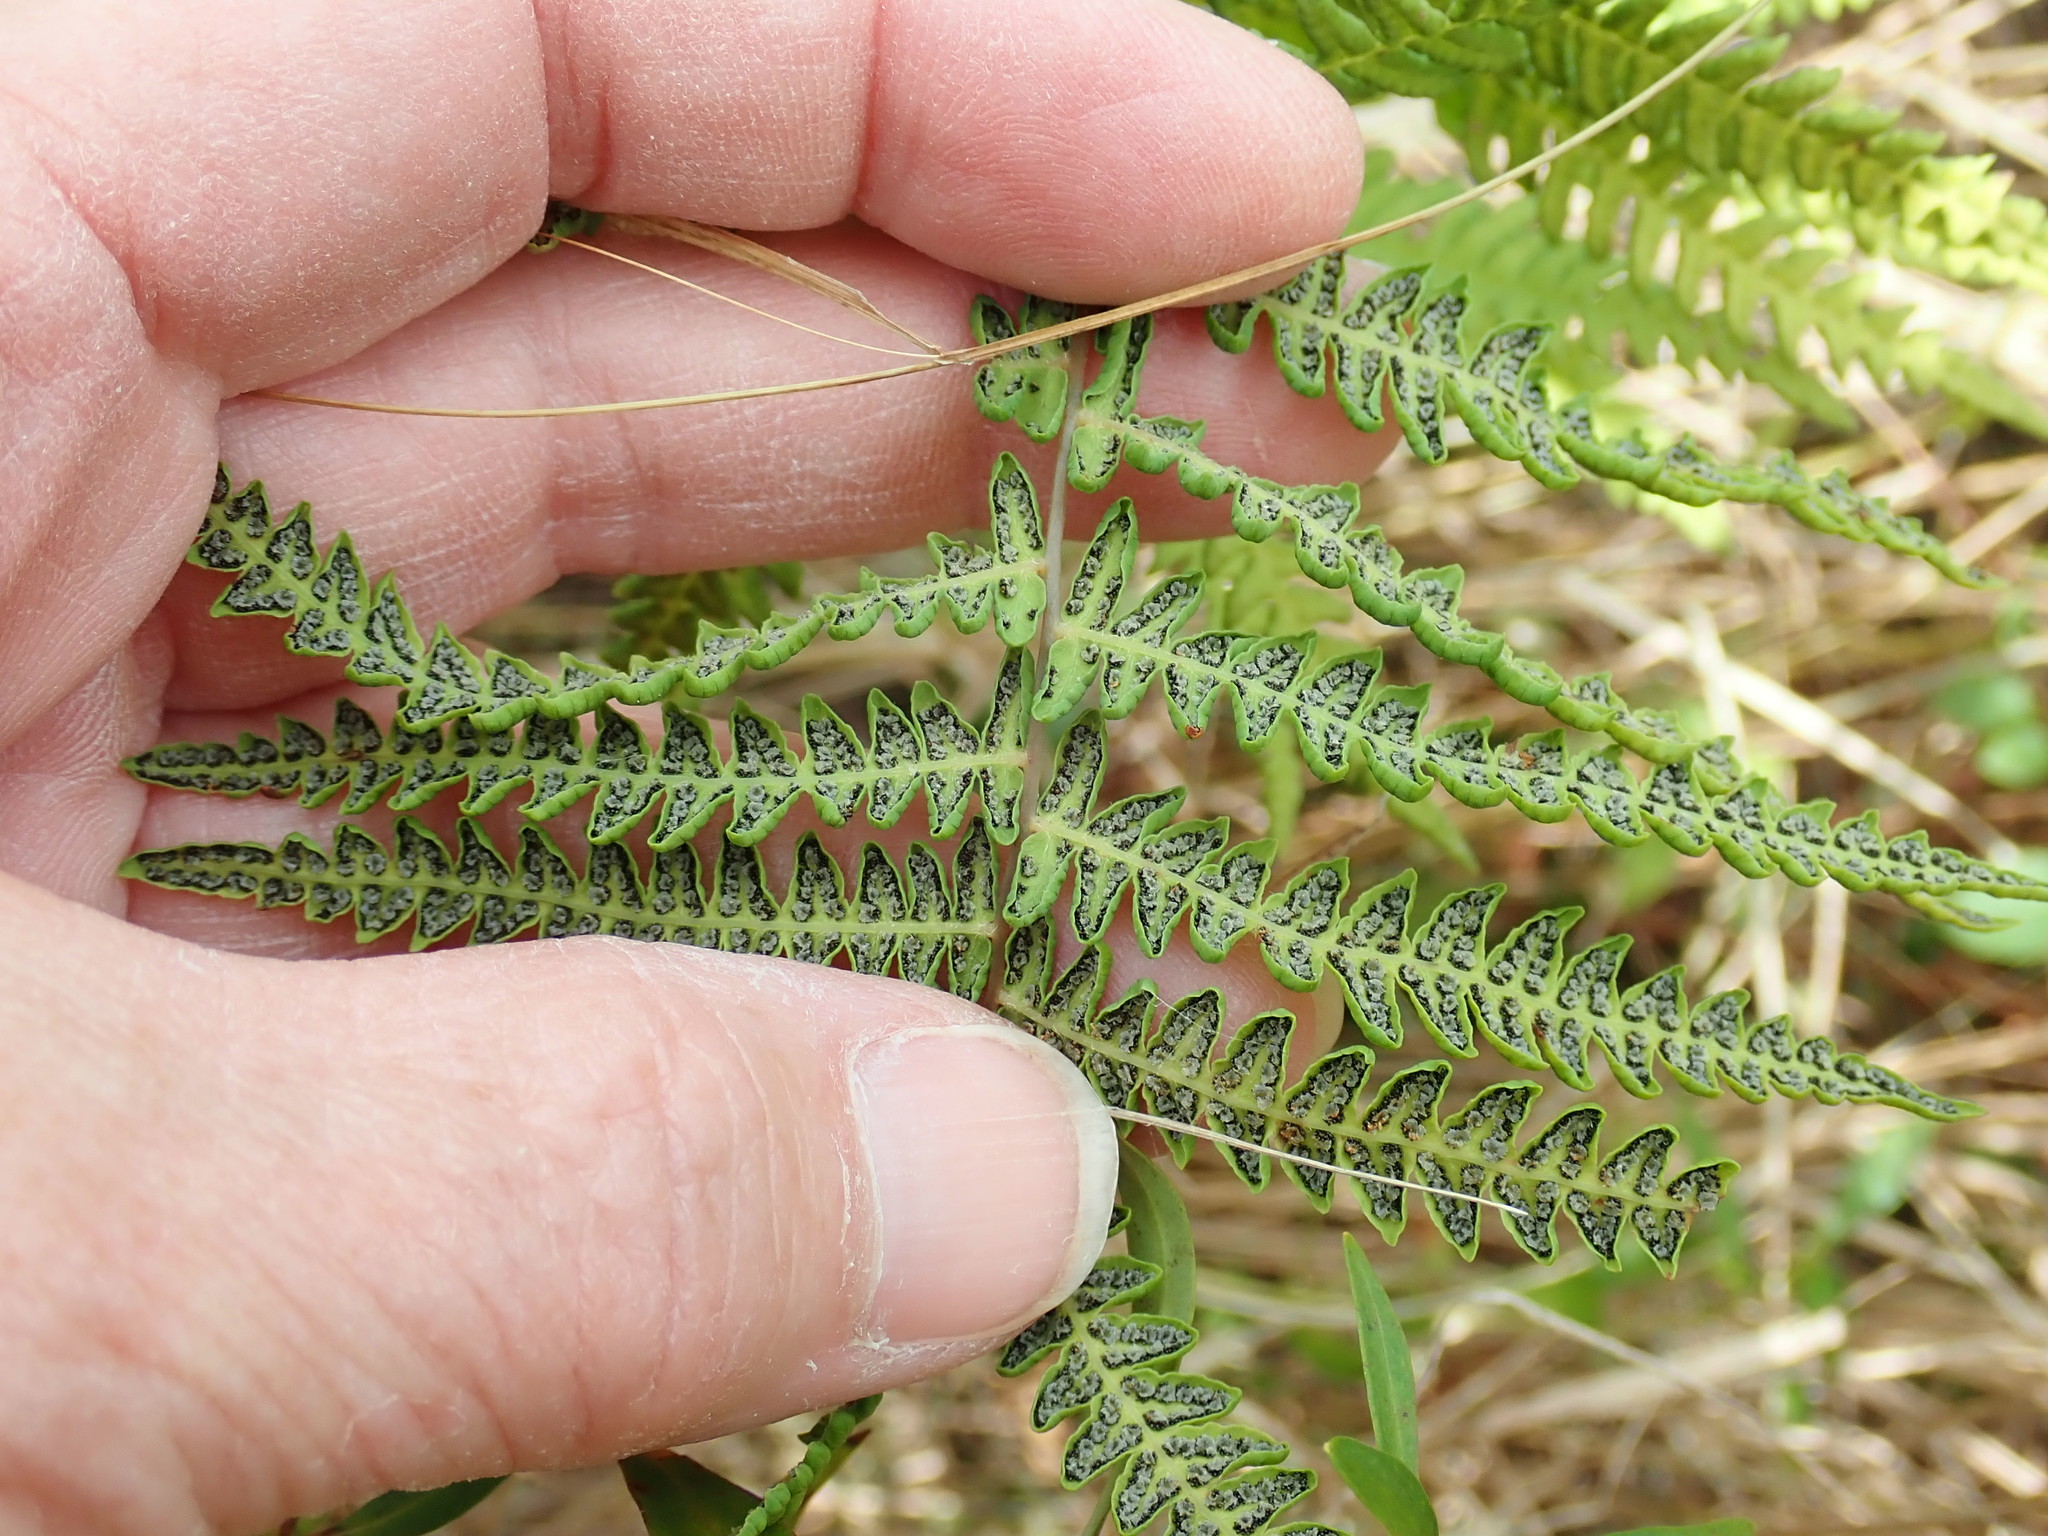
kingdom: Plantae
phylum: Tracheophyta
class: Polypodiopsida
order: Polypodiales
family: Thelypteridaceae
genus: Thelypteris
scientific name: Thelypteris palustris
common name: Marsh fern
